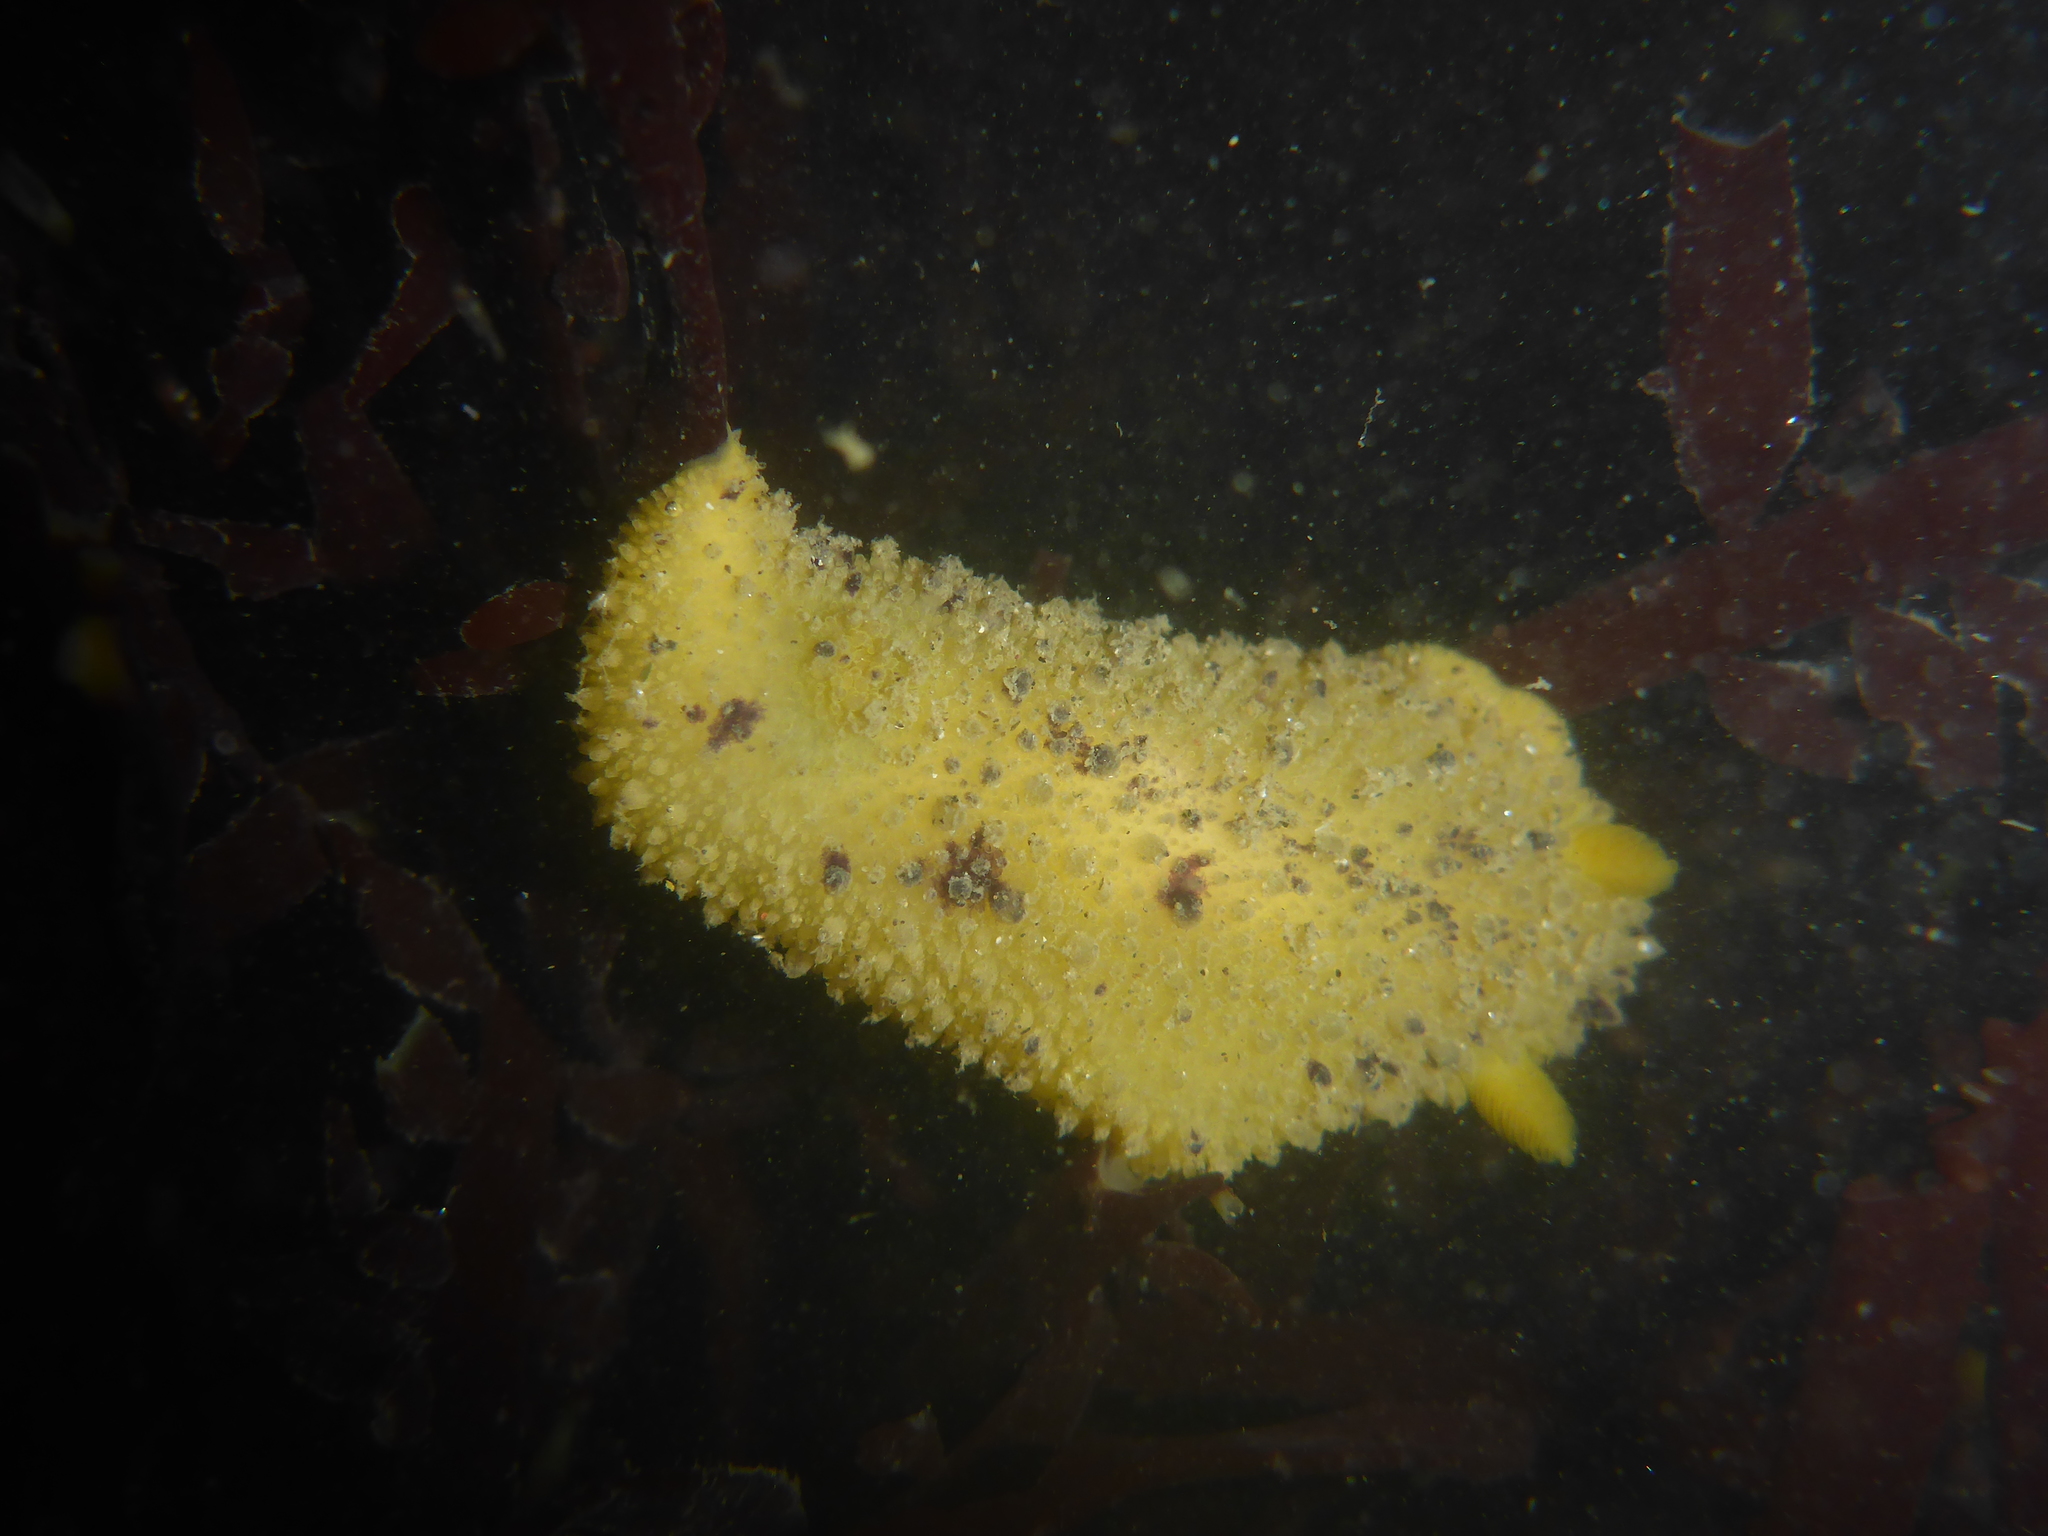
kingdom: Animalia
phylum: Mollusca
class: Gastropoda
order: Nudibranchia
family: Dorididae
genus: Doris
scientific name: Doris montereyensis
